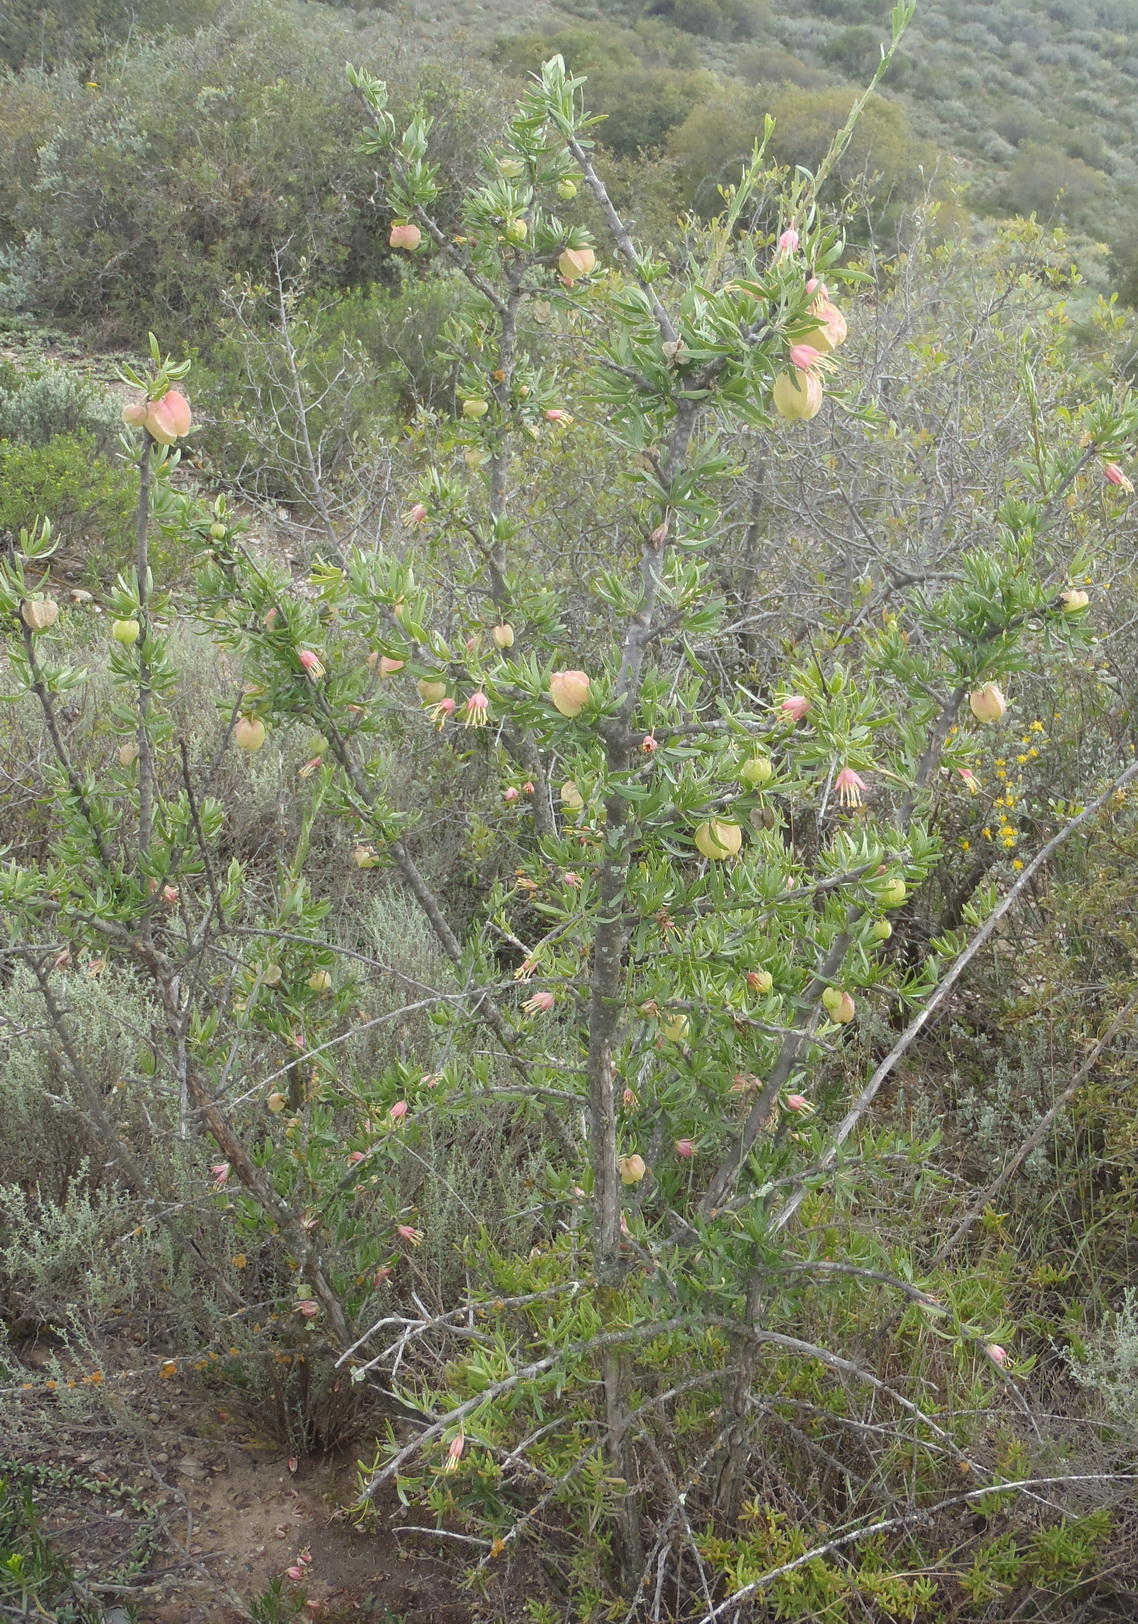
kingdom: Plantae
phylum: Tracheophyta
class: Magnoliopsida
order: Sapindales
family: Meliaceae
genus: Nymania
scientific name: Nymania capensis
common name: Chinese lantern tree
